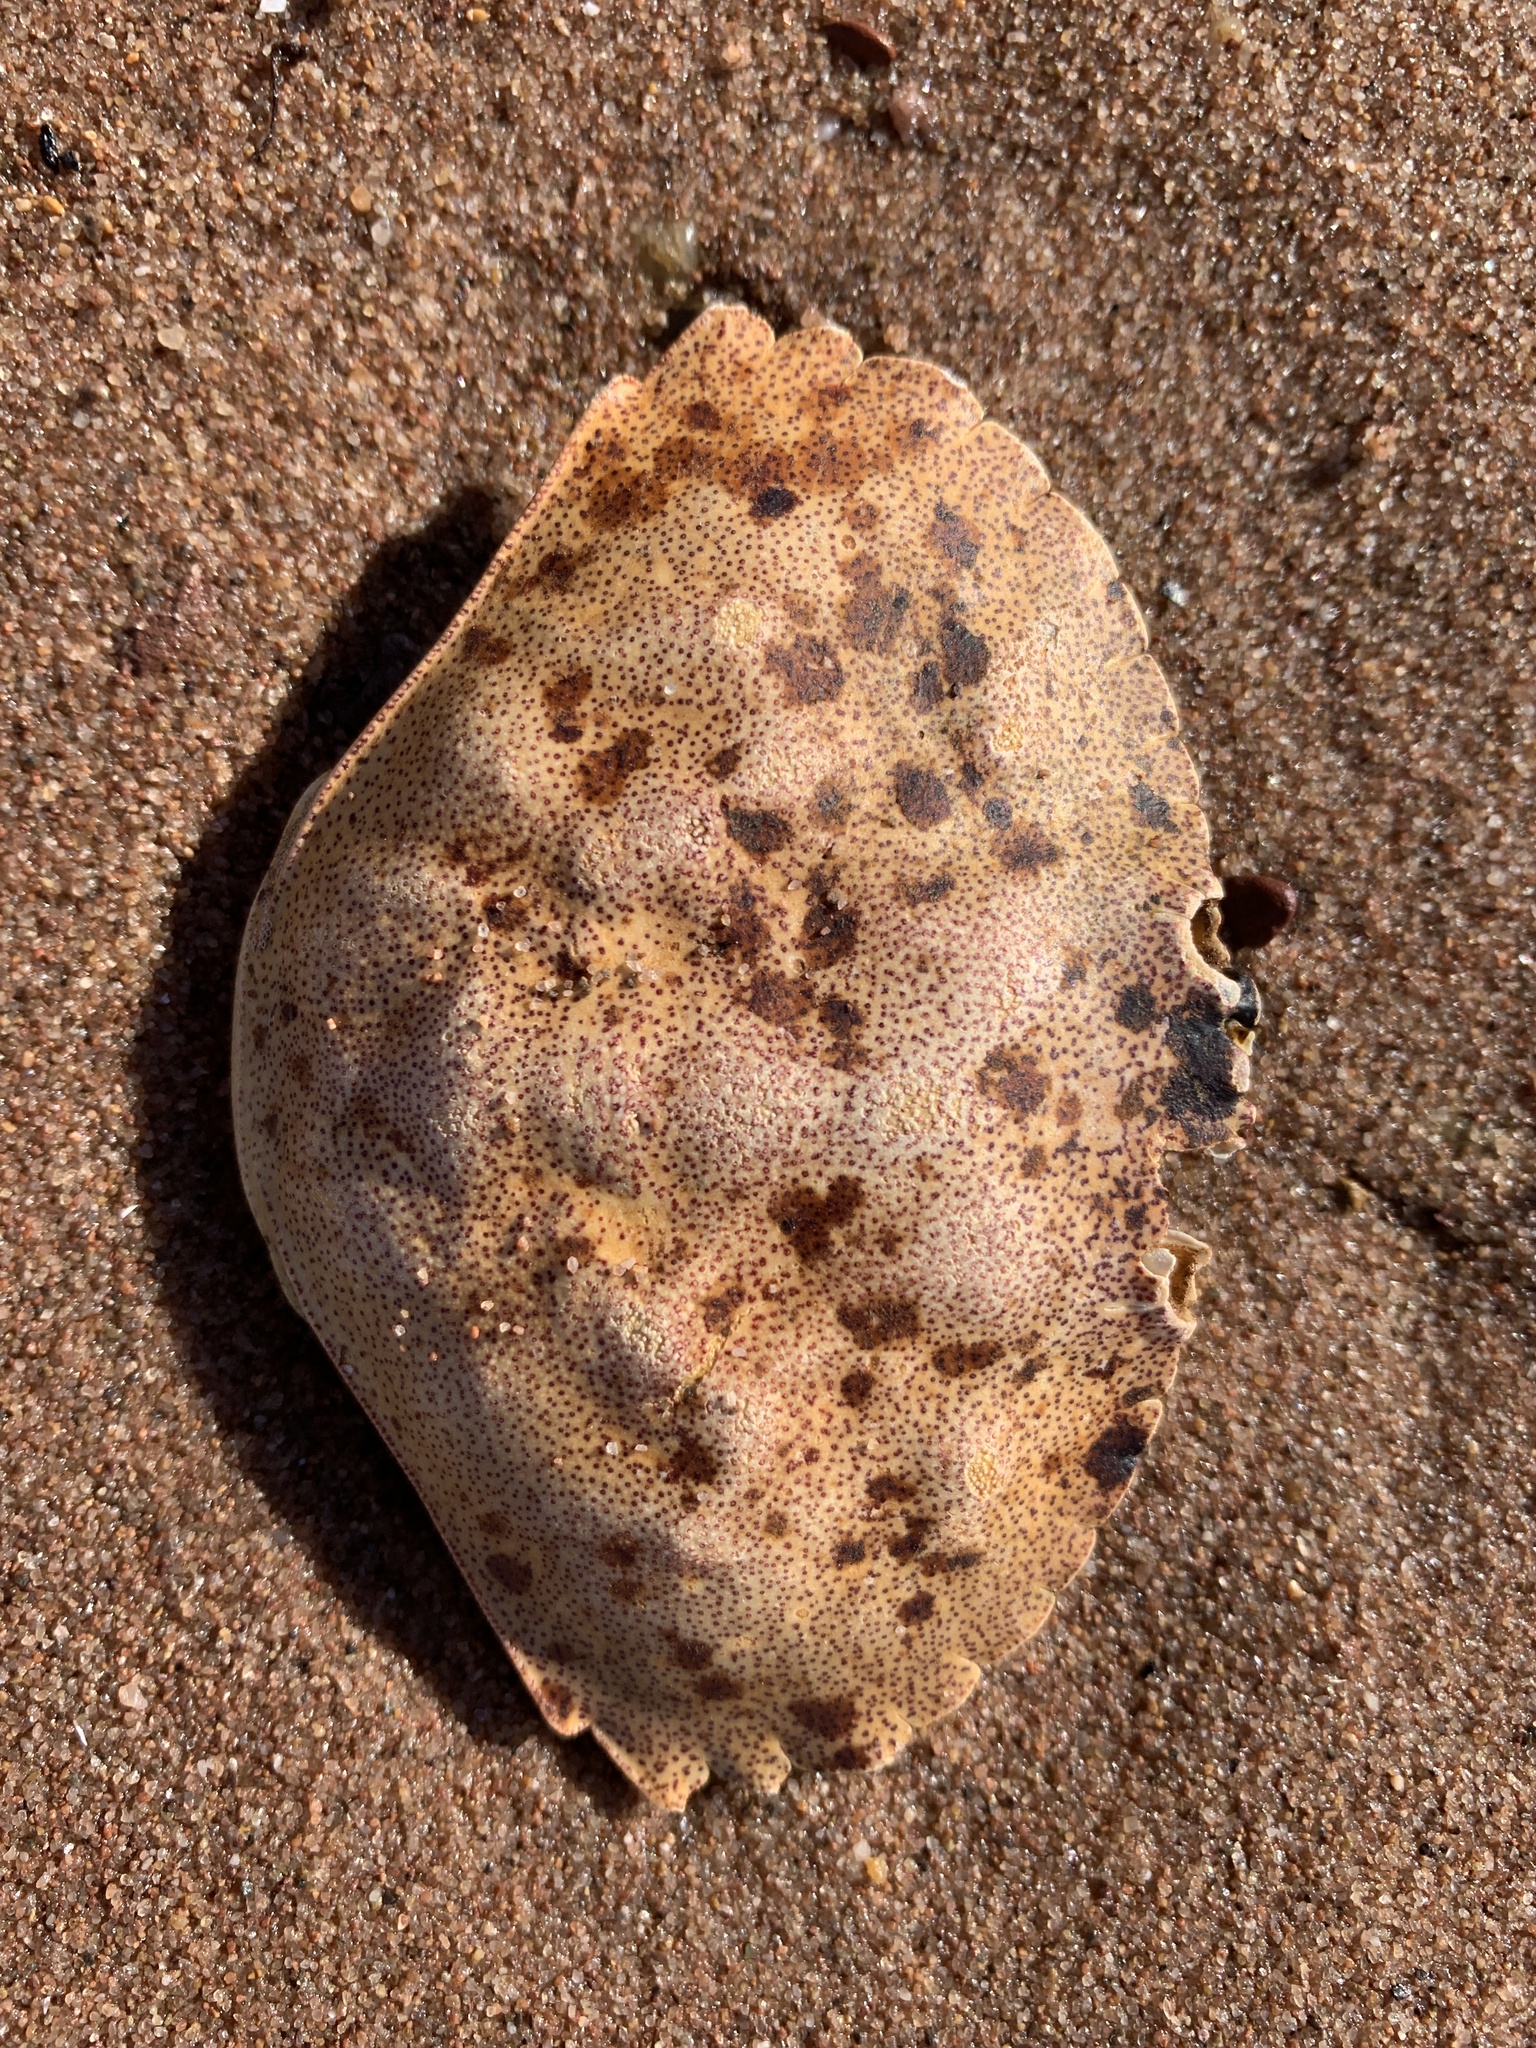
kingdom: Animalia
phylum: Arthropoda
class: Malacostraca
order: Decapoda
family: Cancridae
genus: Cancer
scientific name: Cancer irroratus
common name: Atlantic rock crab
